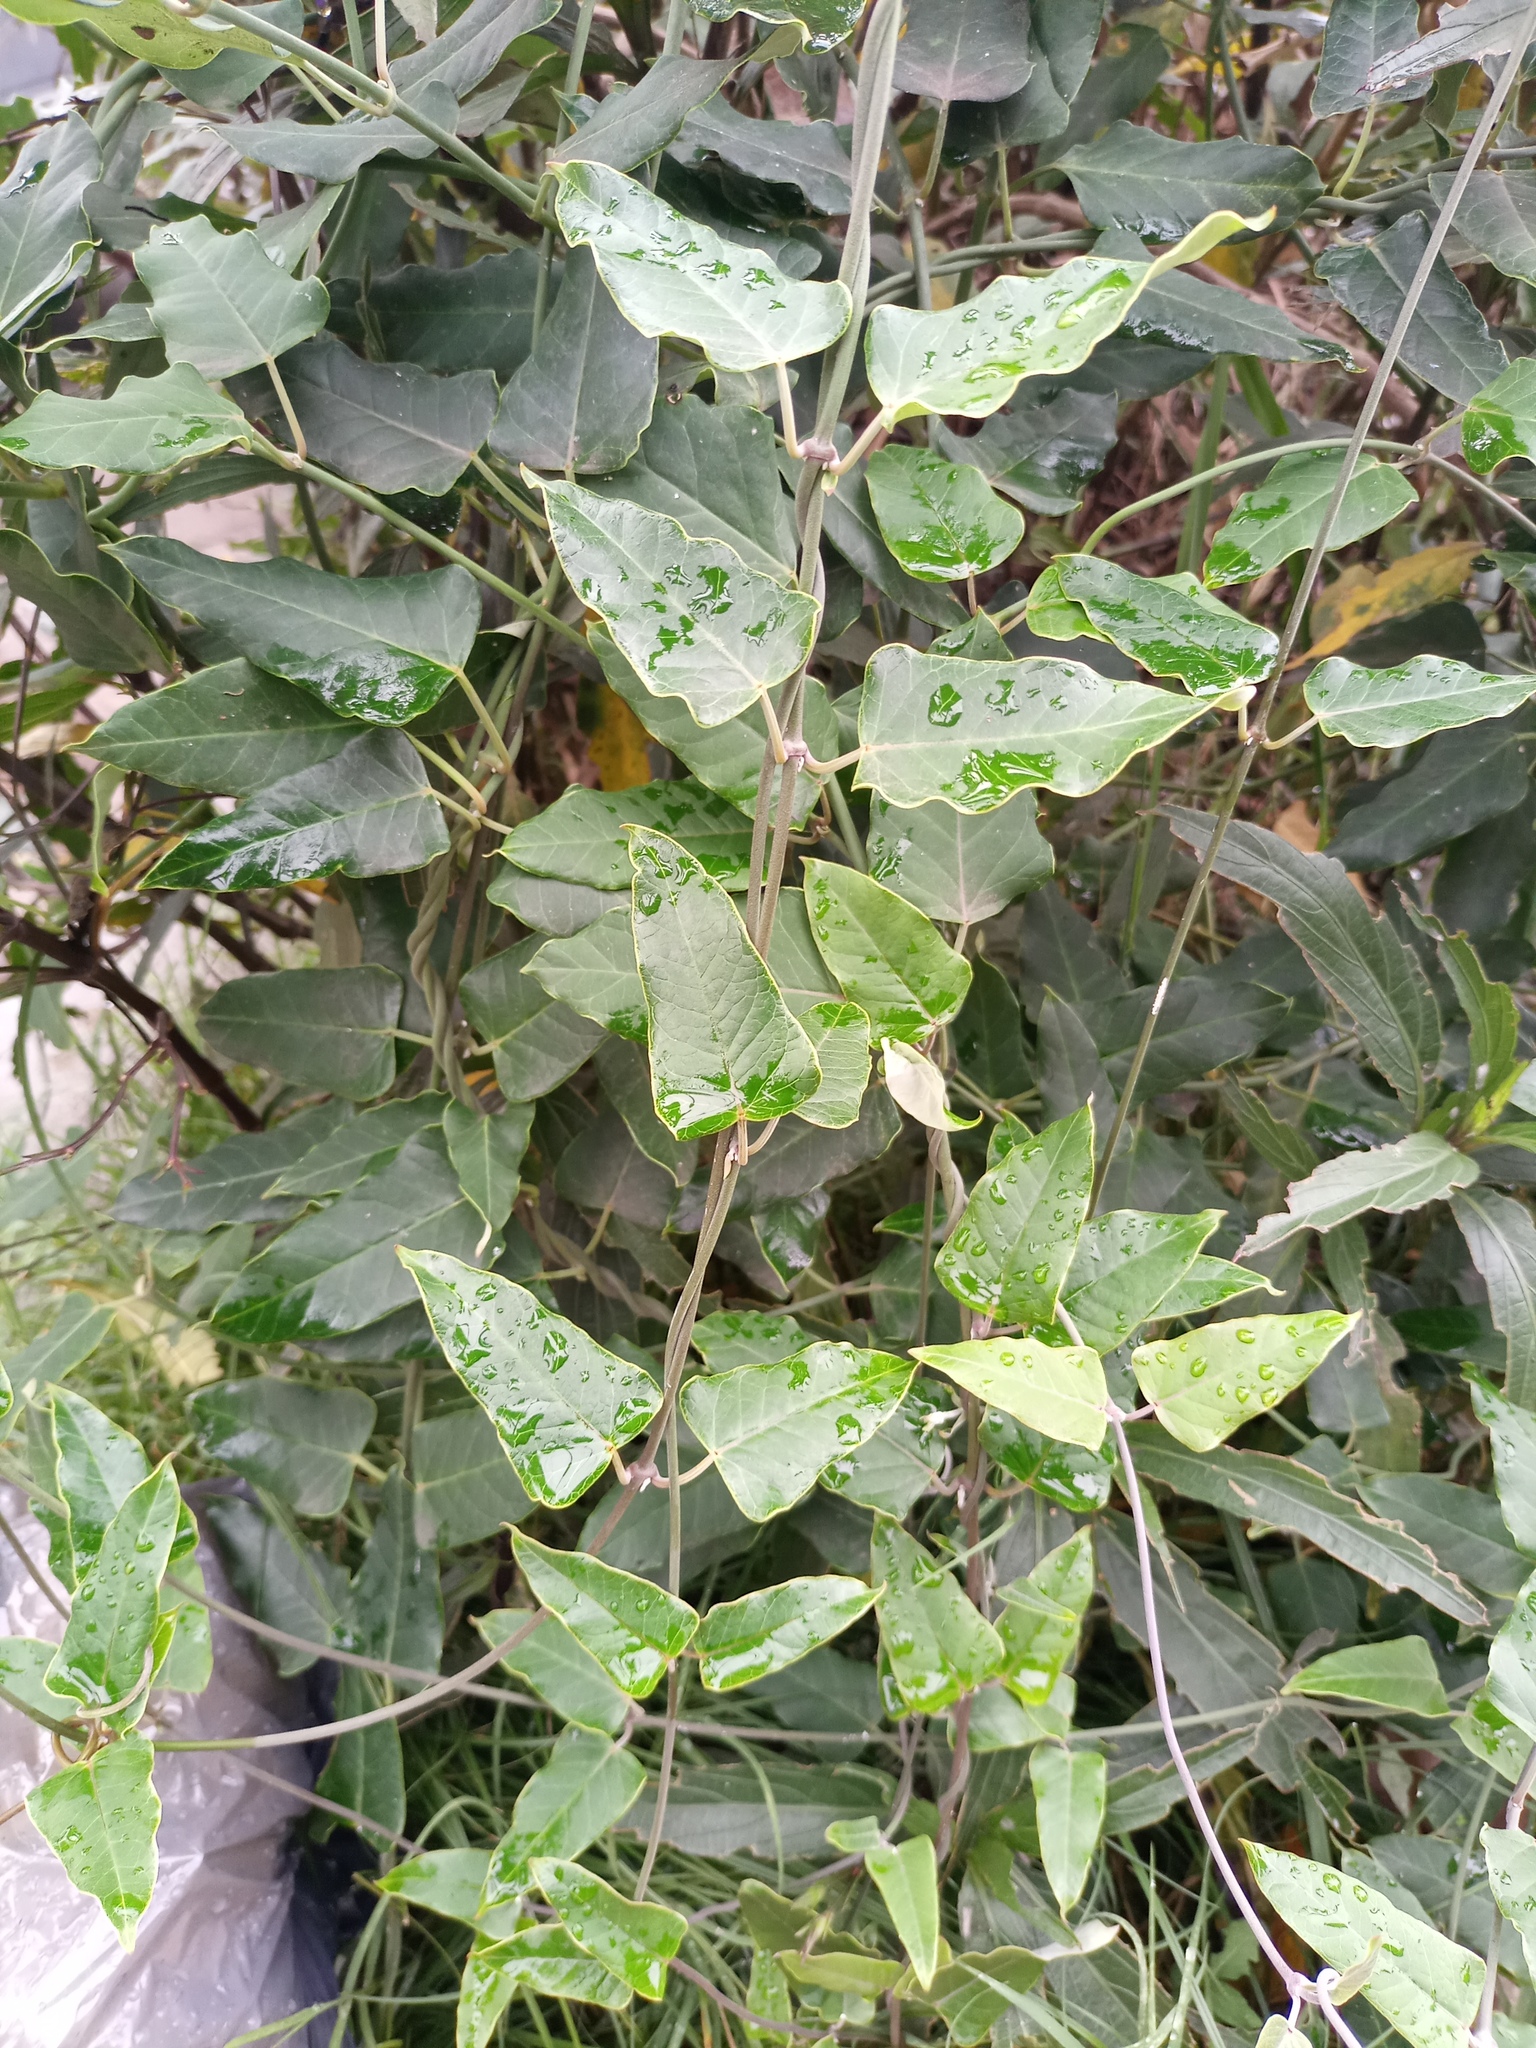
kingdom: Plantae
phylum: Tracheophyta
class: Magnoliopsida
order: Gentianales
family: Apocynaceae
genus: Araujia
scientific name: Araujia sericifera
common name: White bladderflower
